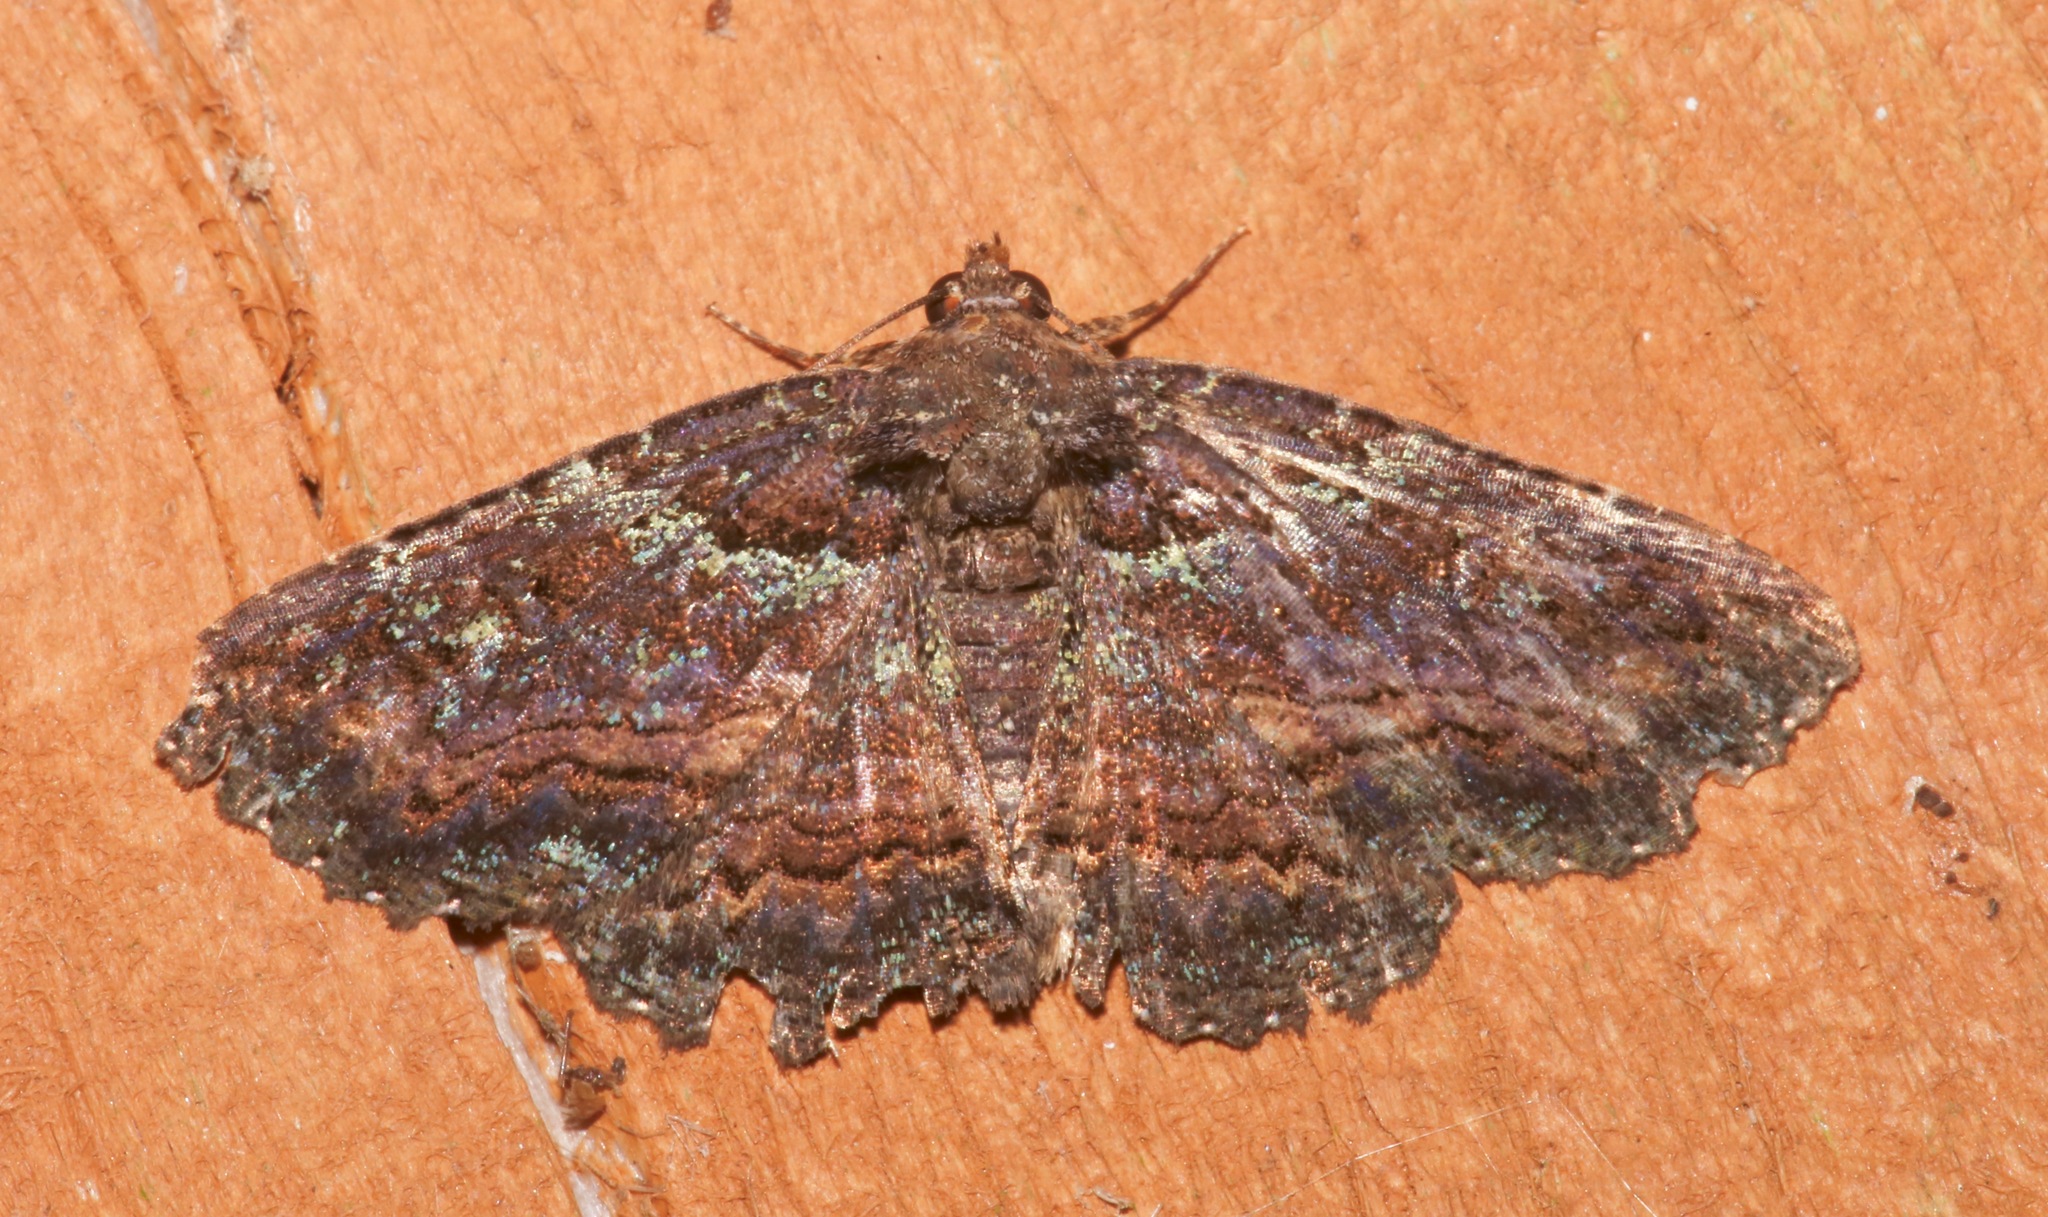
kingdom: Animalia
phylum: Arthropoda
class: Insecta
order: Lepidoptera
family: Erebidae
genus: Zale
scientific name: Zale aeruginosa
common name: Green-dusted zale moth
